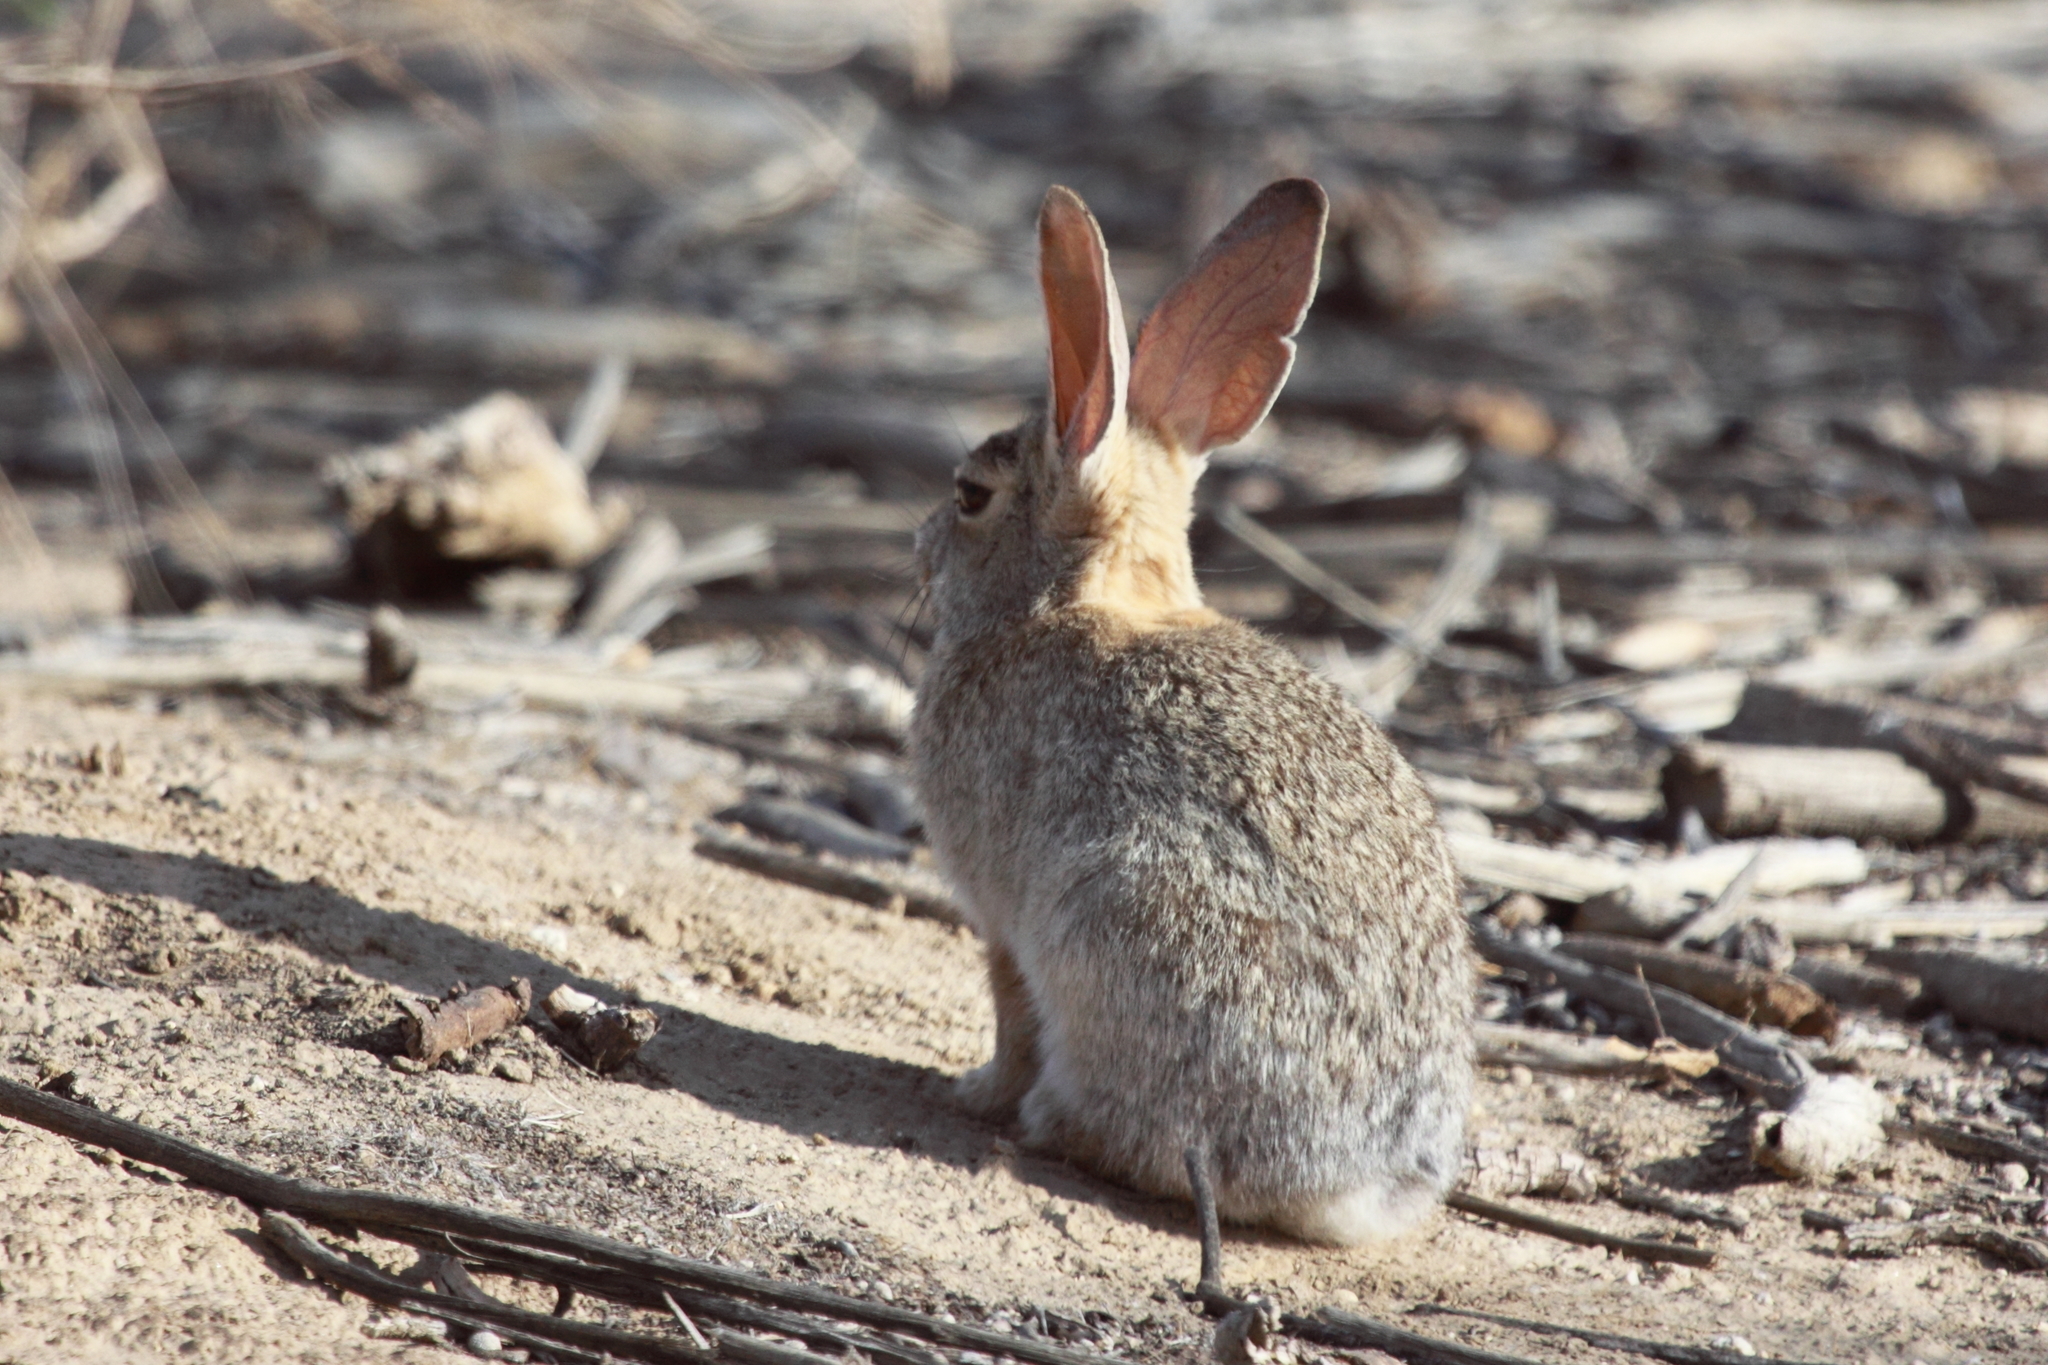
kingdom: Animalia
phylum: Chordata
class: Mammalia
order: Lagomorpha
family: Leporidae
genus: Sylvilagus
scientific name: Sylvilagus audubonii
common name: Desert cottontail
